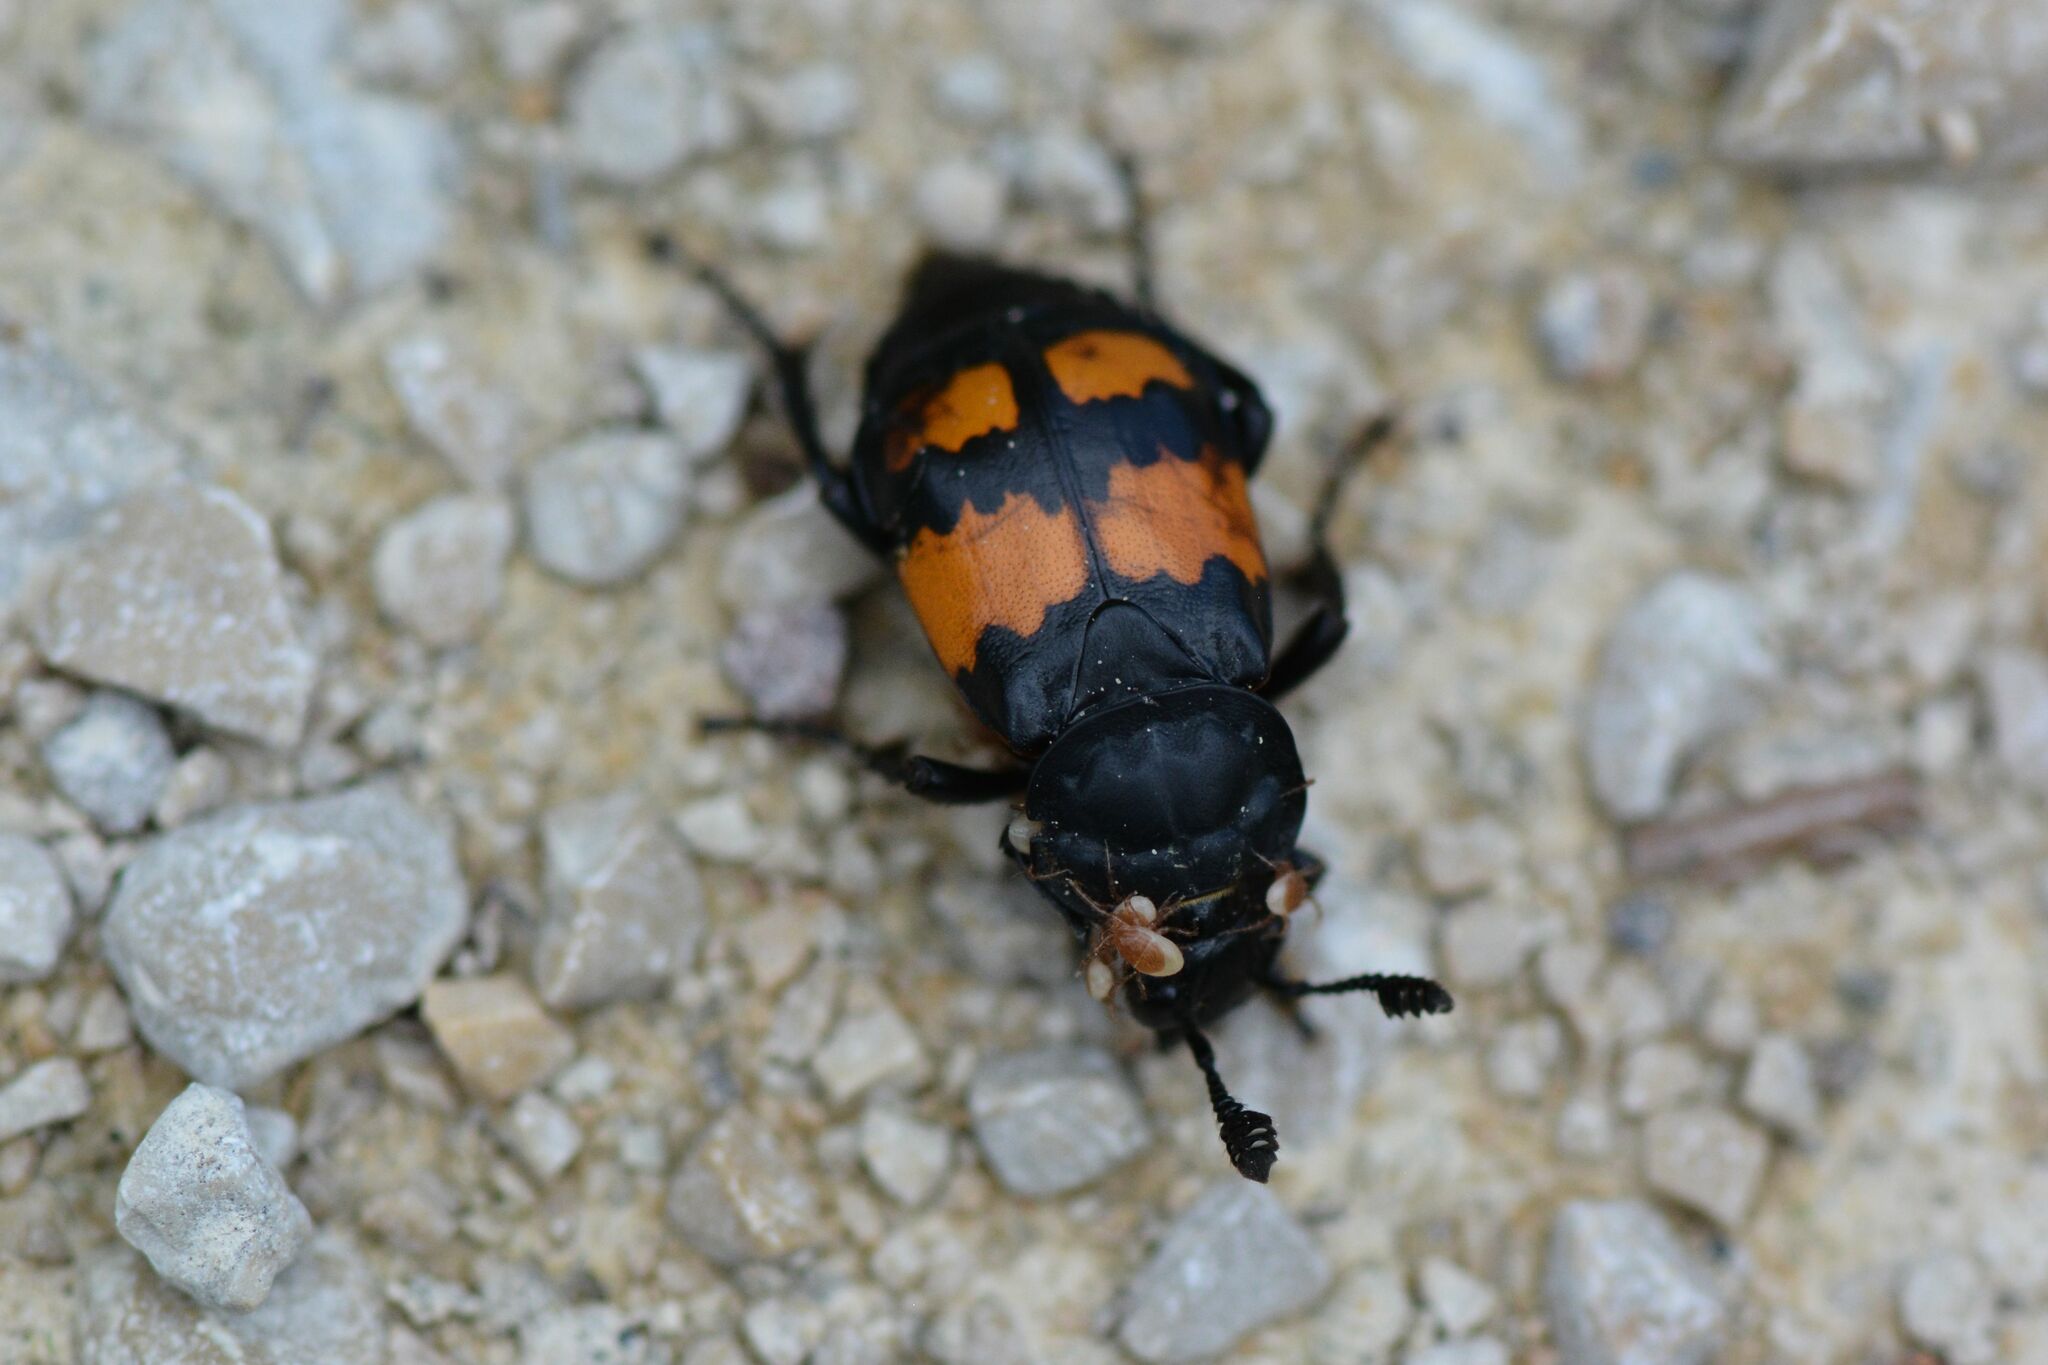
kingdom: Animalia
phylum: Arthropoda
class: Insecta
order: Coleoptera
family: Staphylinidae
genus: Nicrophorus
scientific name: Nicrophorus vespilloides
